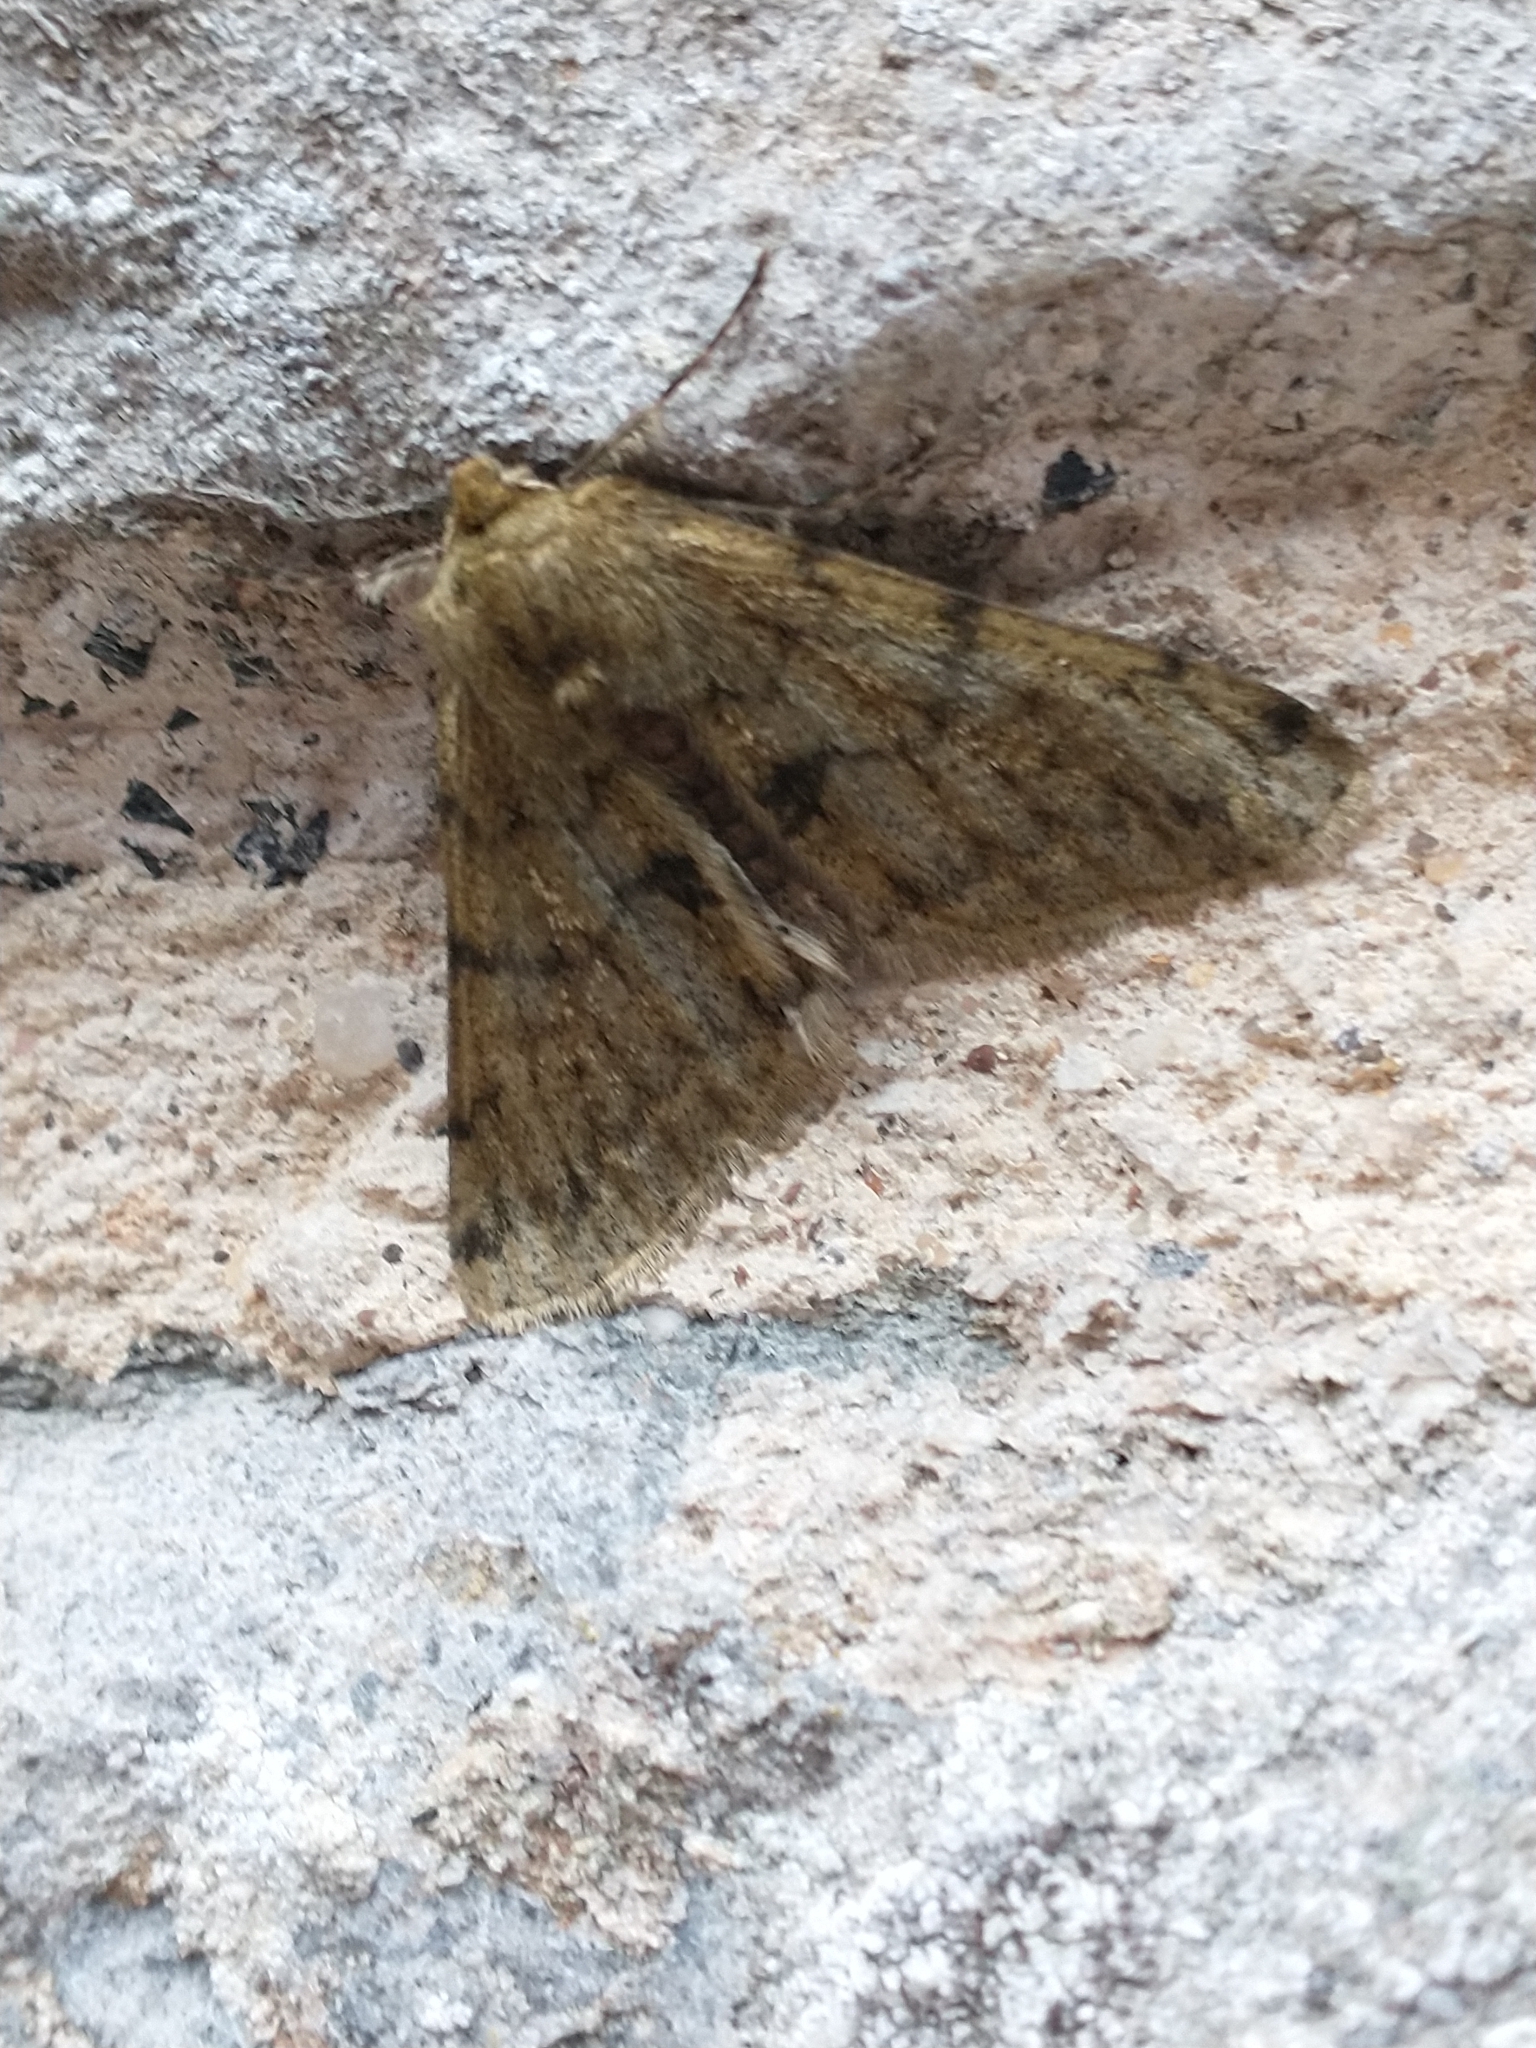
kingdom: Animalia
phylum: Arthropoda
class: Insecta
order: Lepidoptera
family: Geometridae
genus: Phigalia
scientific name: Phigalia pilosaria
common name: Pale brindled beauty
